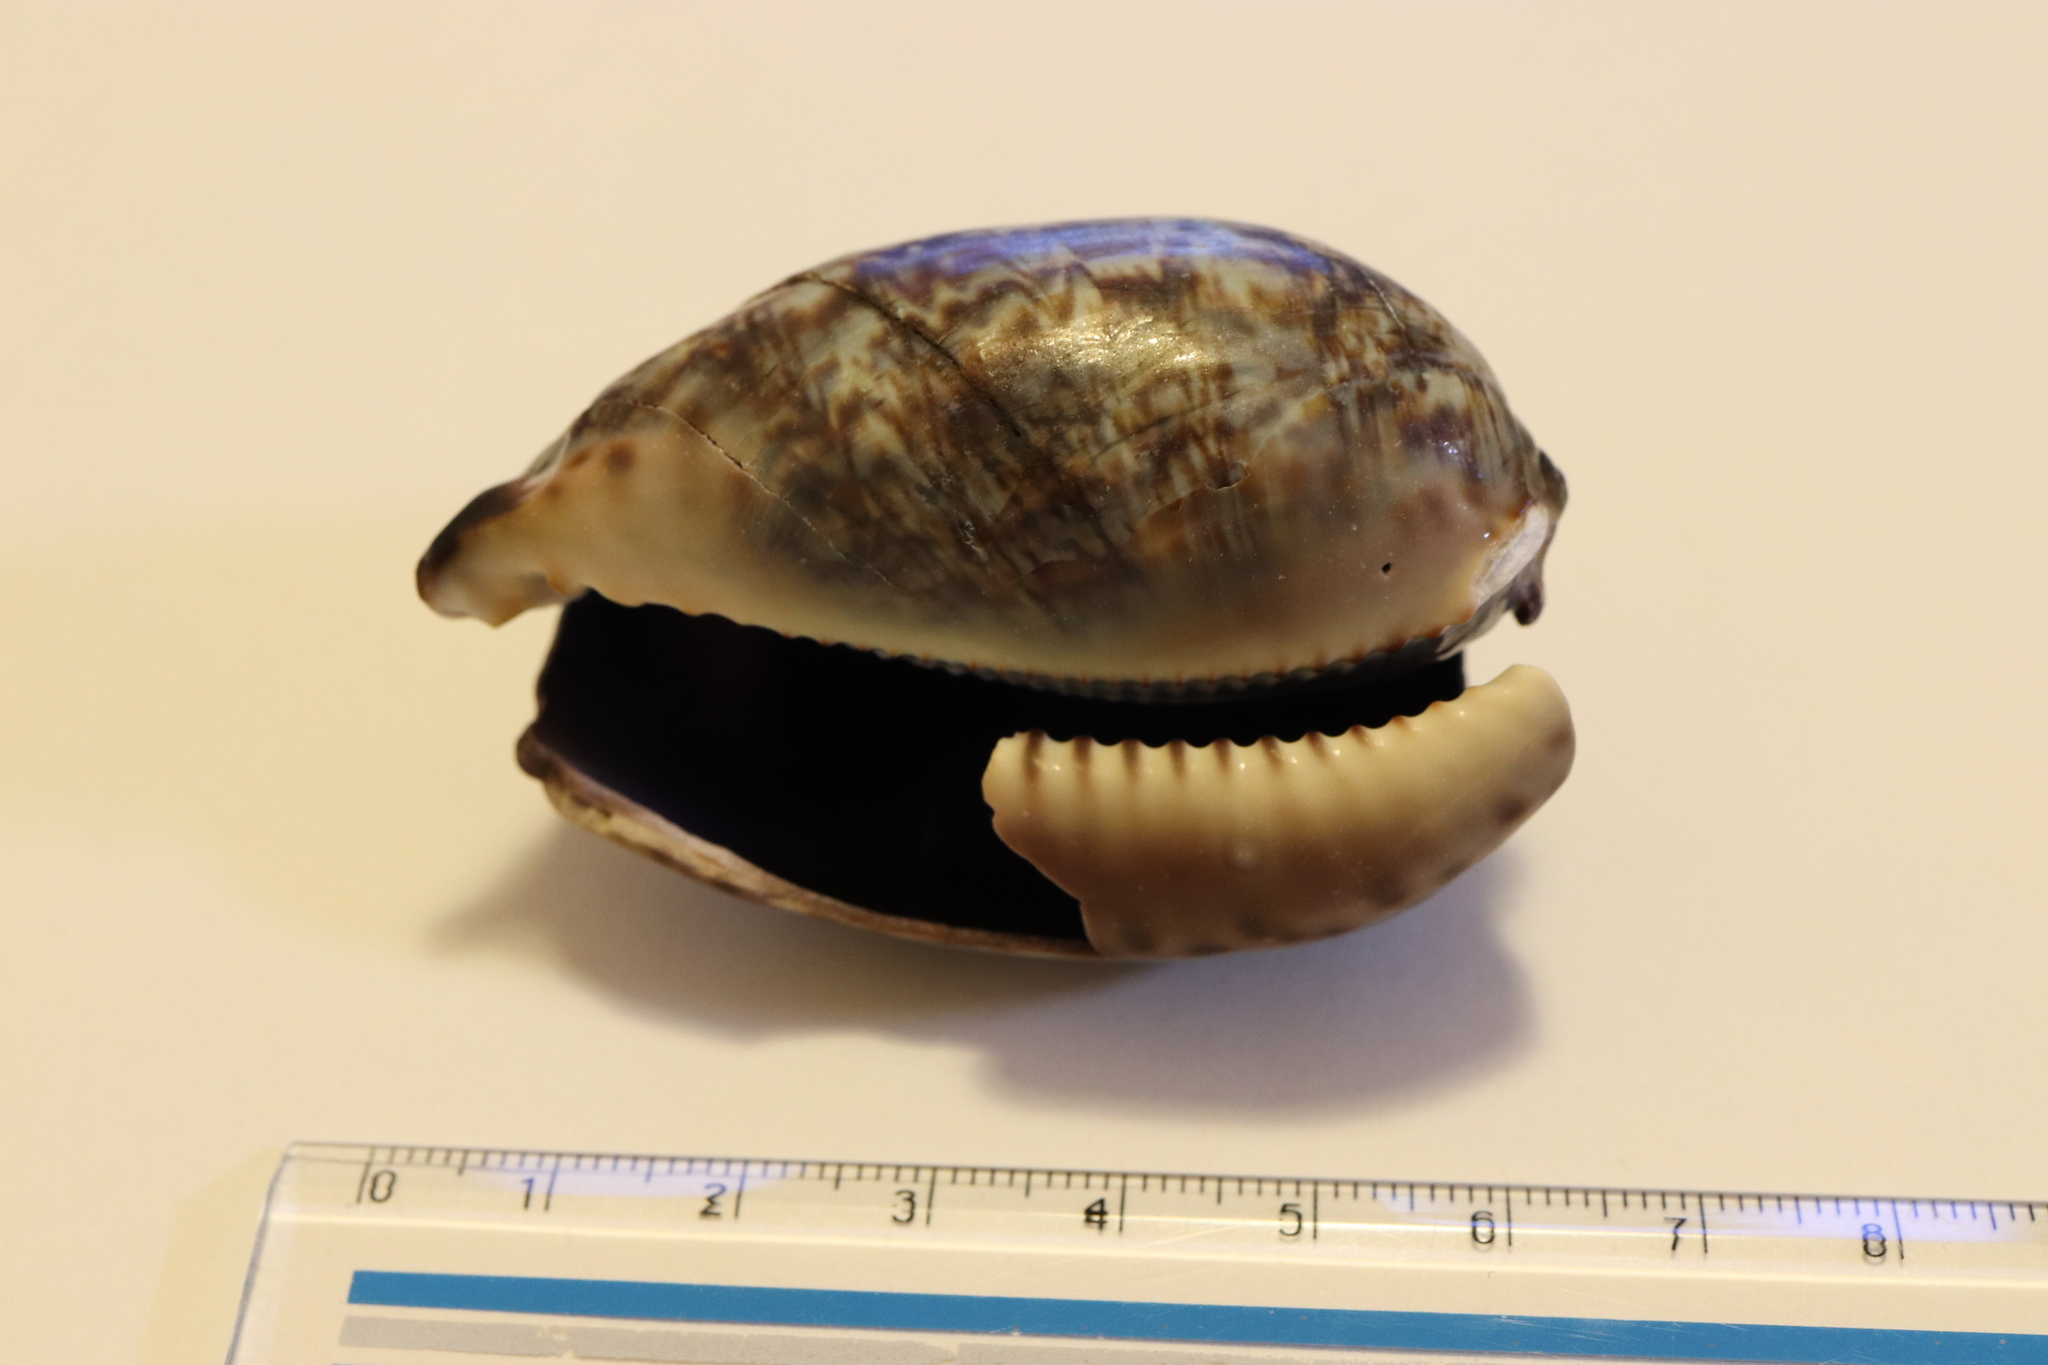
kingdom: Animalia
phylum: Mollusca
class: Gastropoda
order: Littorinimorpha
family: Cypraeidae
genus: Mauritia
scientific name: Mauritia arabica
